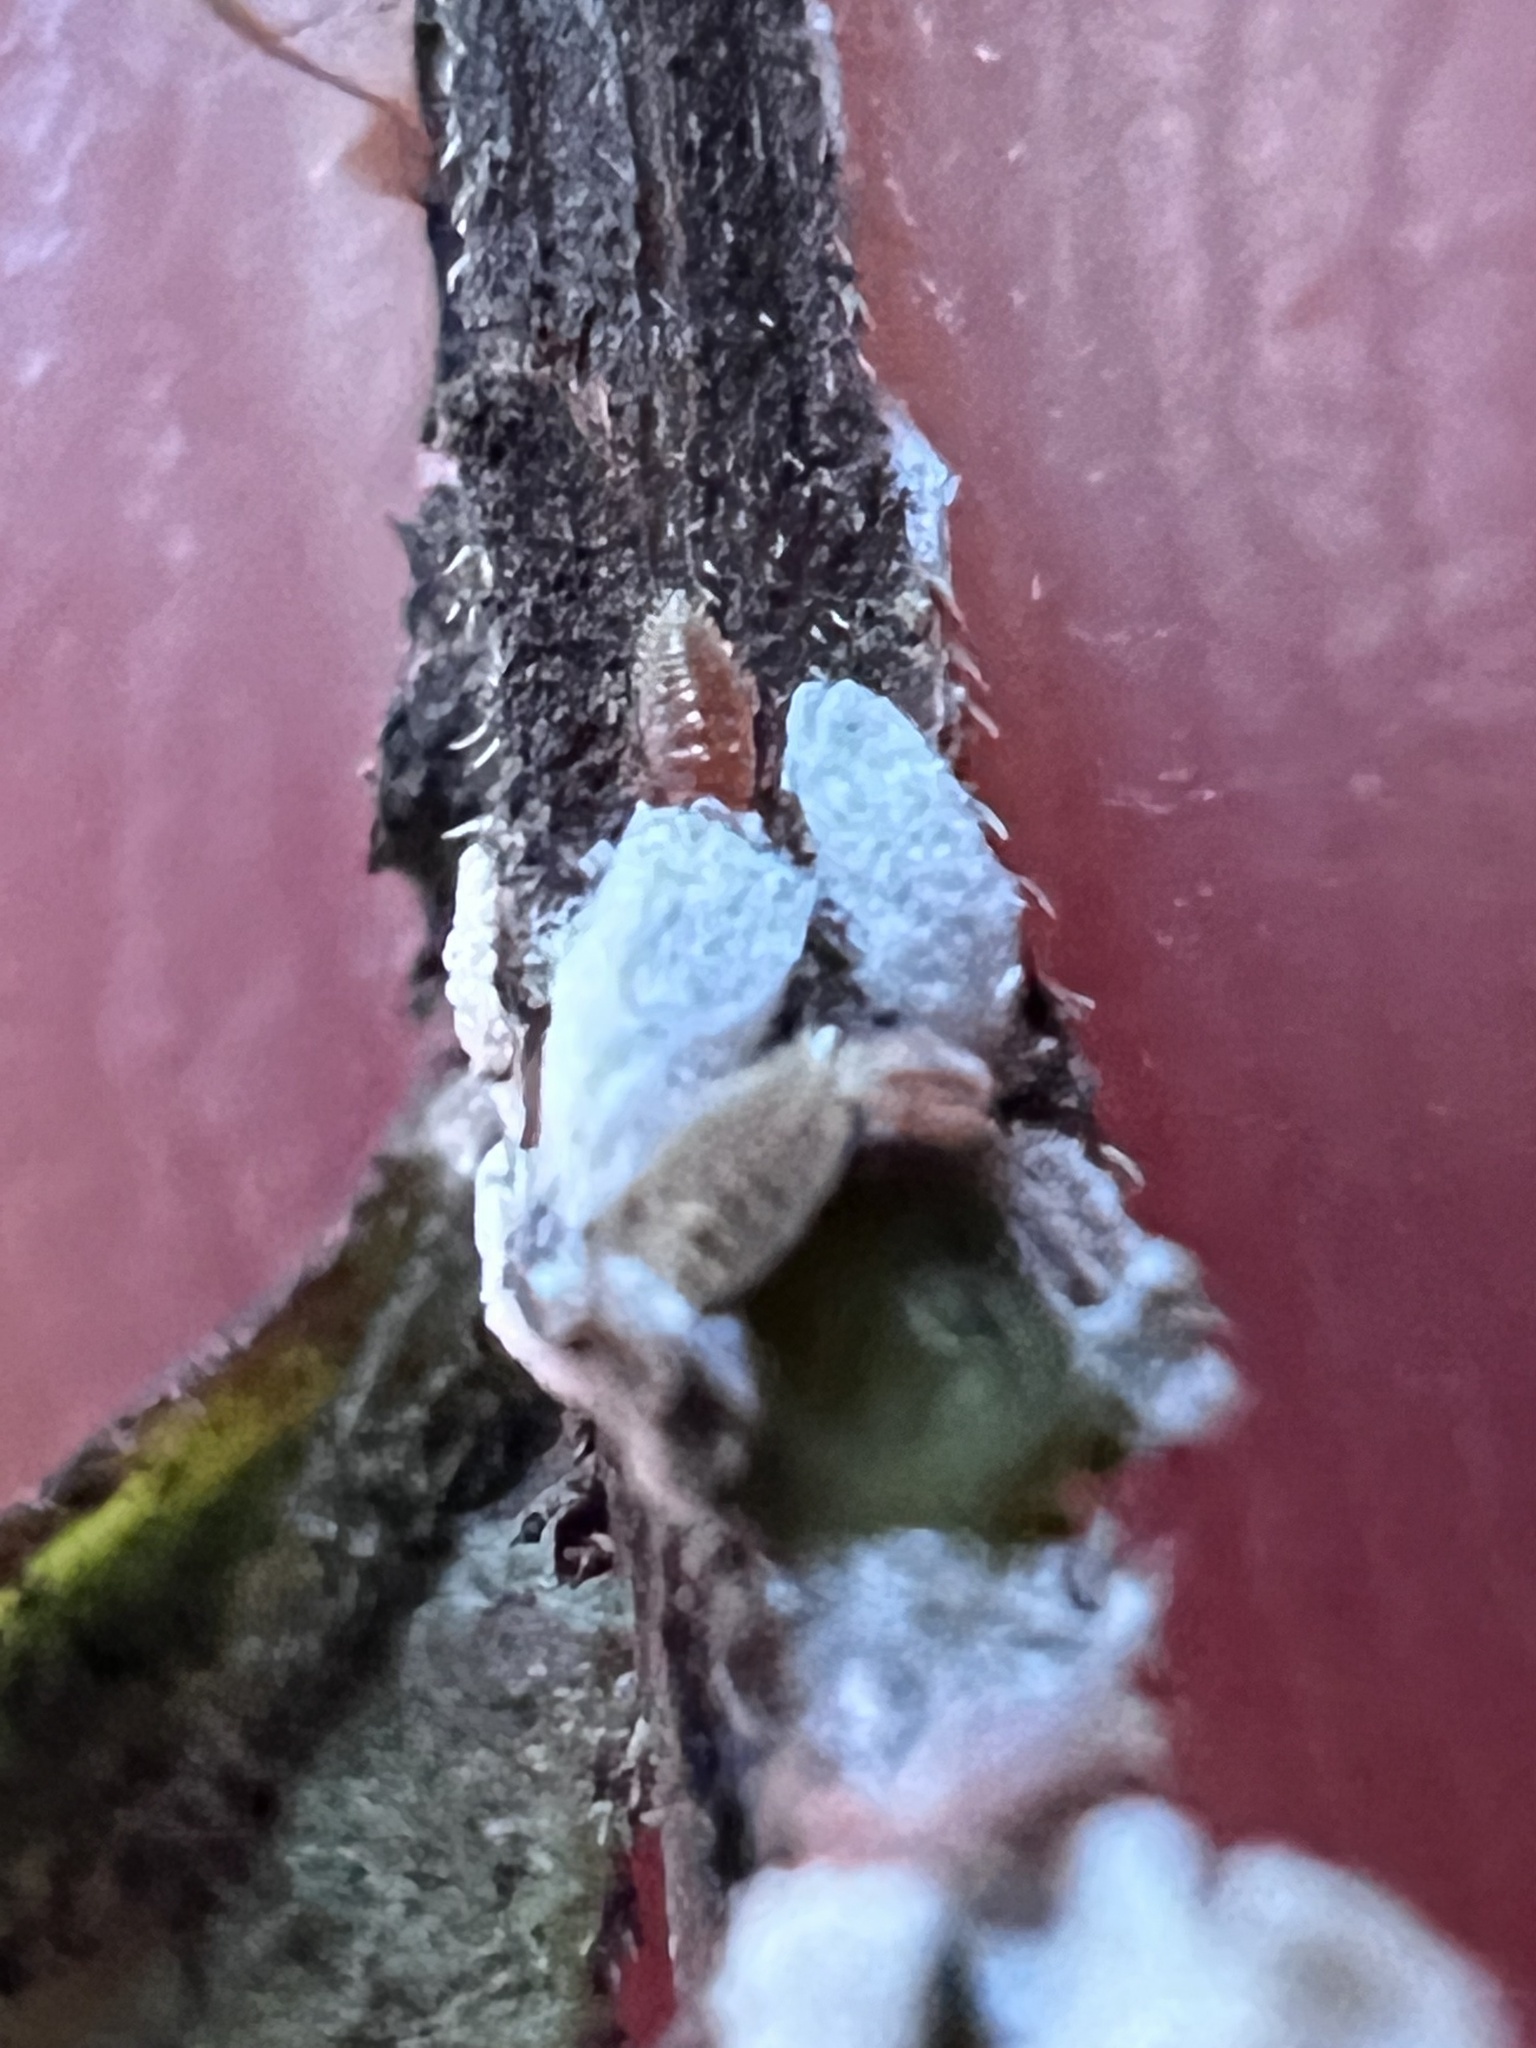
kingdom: Animalia
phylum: Arthropoda
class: Insecta
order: Hemiptera
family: Eriococcidae
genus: Eriococcus
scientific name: Eriococcus lagerstroemiae
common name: Crapemyrtle bark scale
